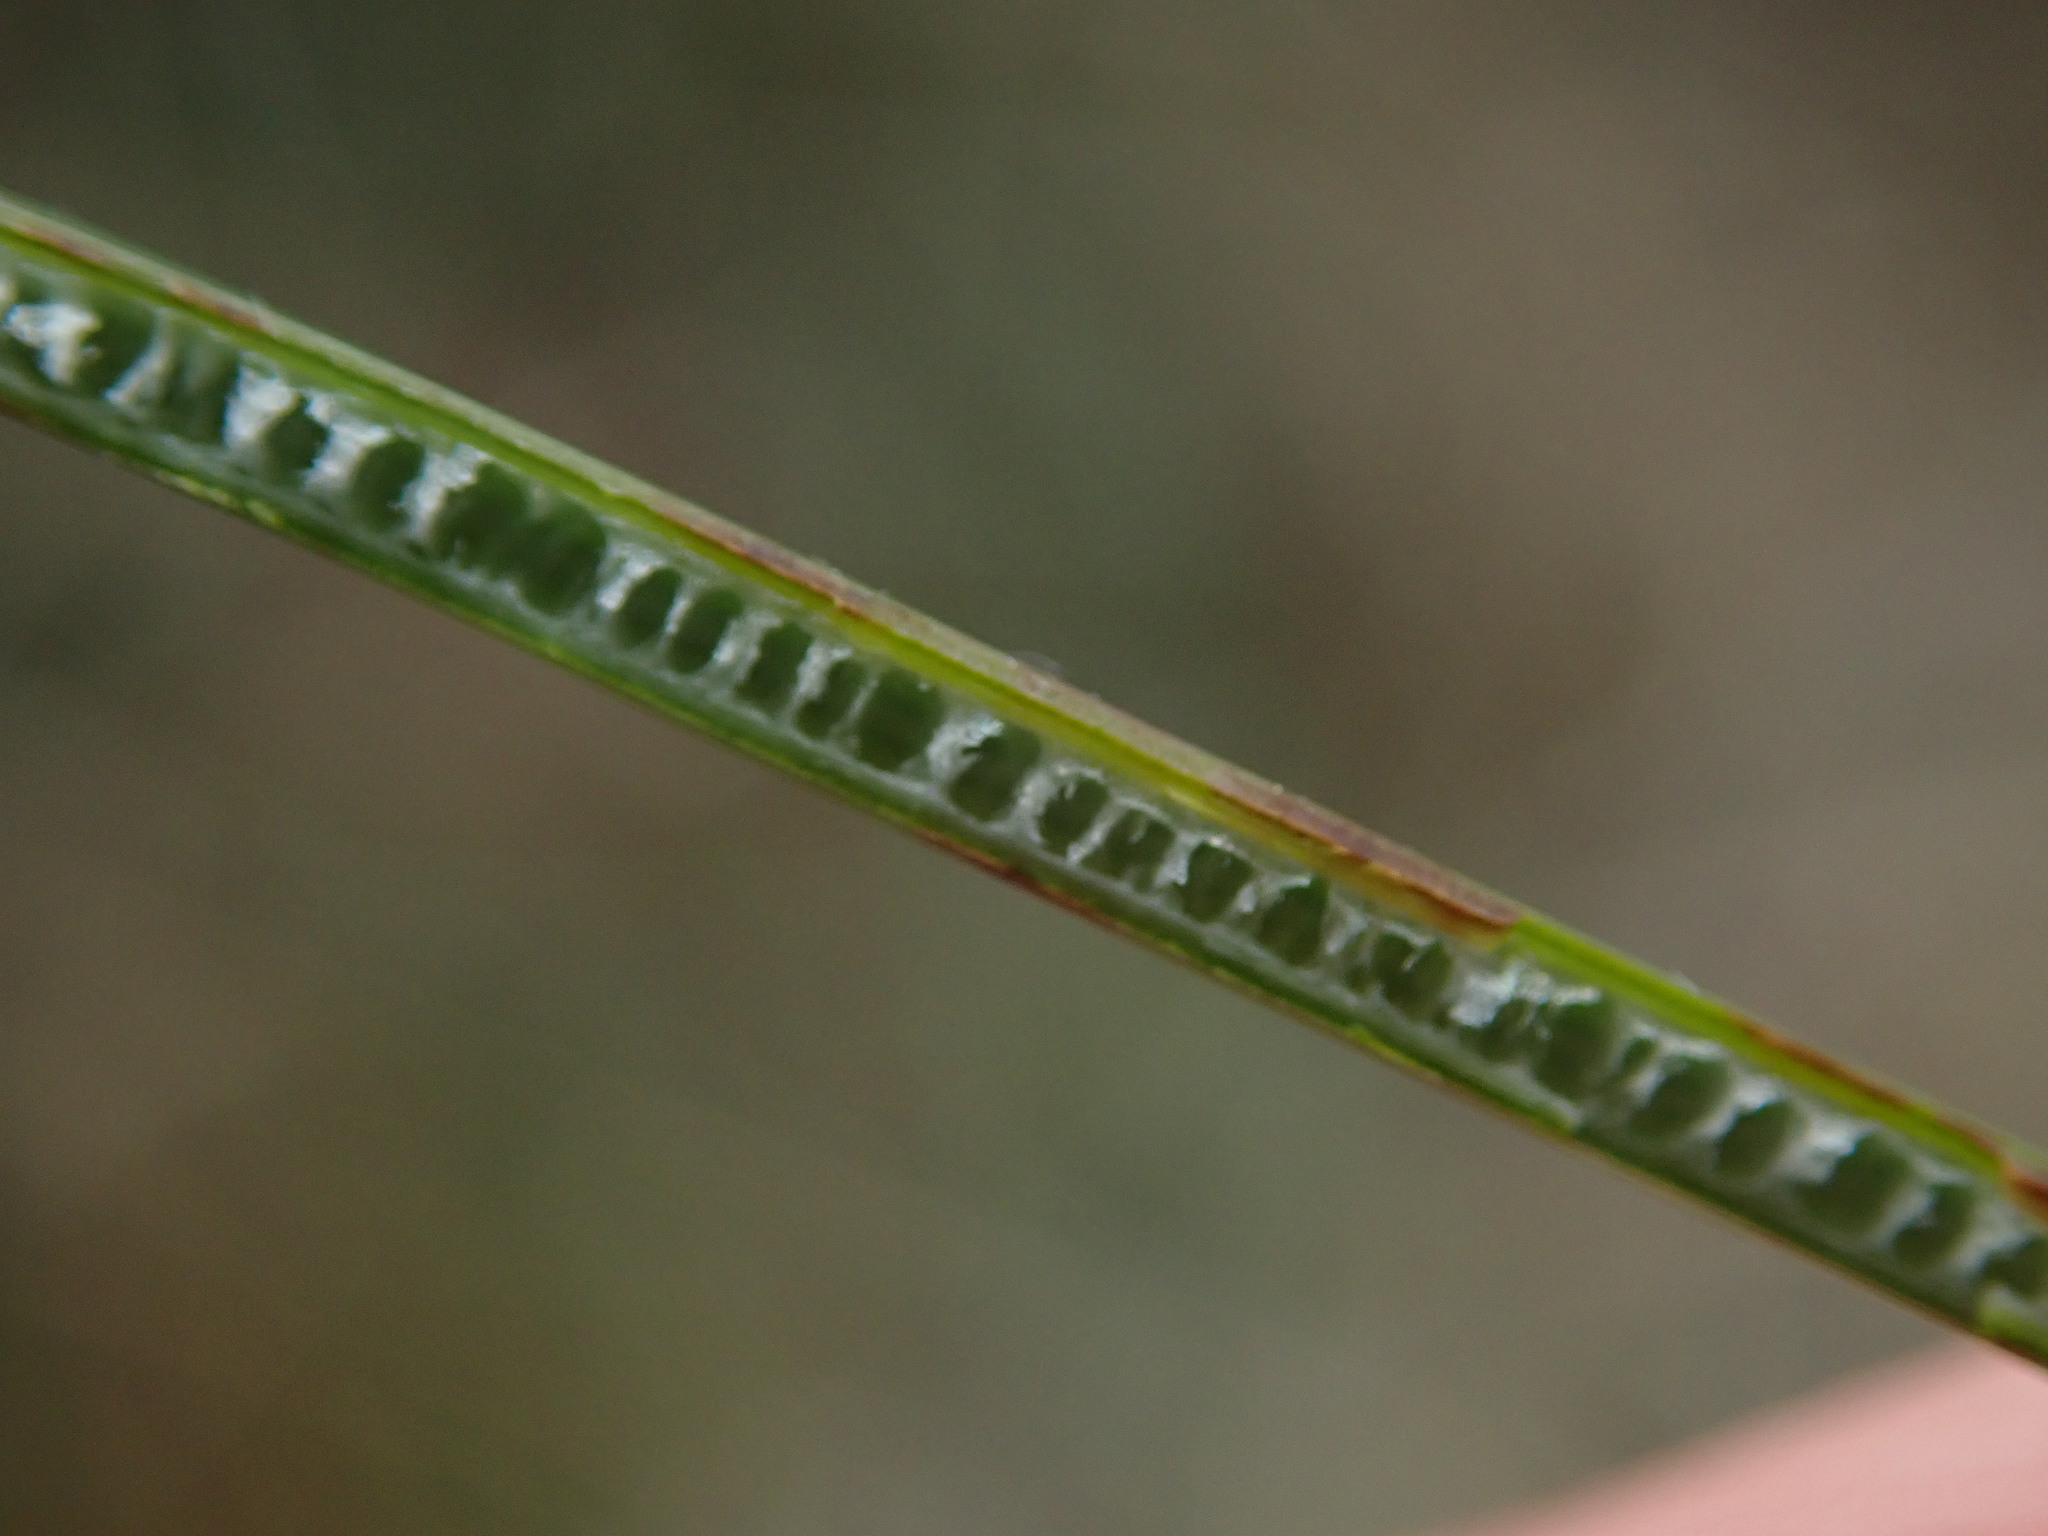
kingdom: Plantae
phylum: Tracheophyta
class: Liliopsida
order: Poales
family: Juncaceae
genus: Juncus
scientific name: Juncus inflexus
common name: Hard rush
